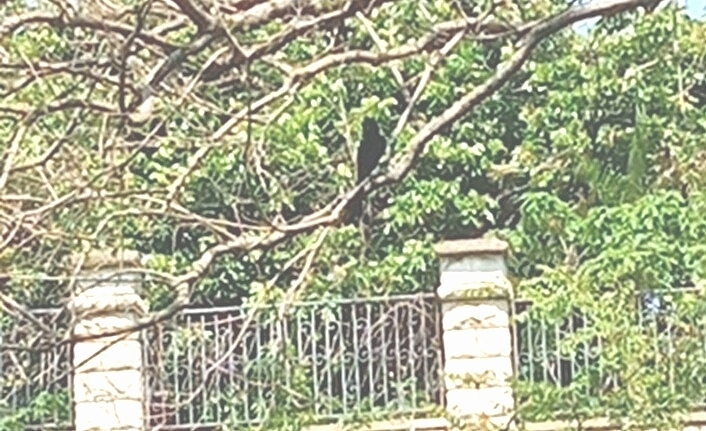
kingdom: Animalia
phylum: Chordata
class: Aves
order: Passeriformes
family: Dicruridae
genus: Dicrurus
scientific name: Dicrurus macrocercus
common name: Black drongo
